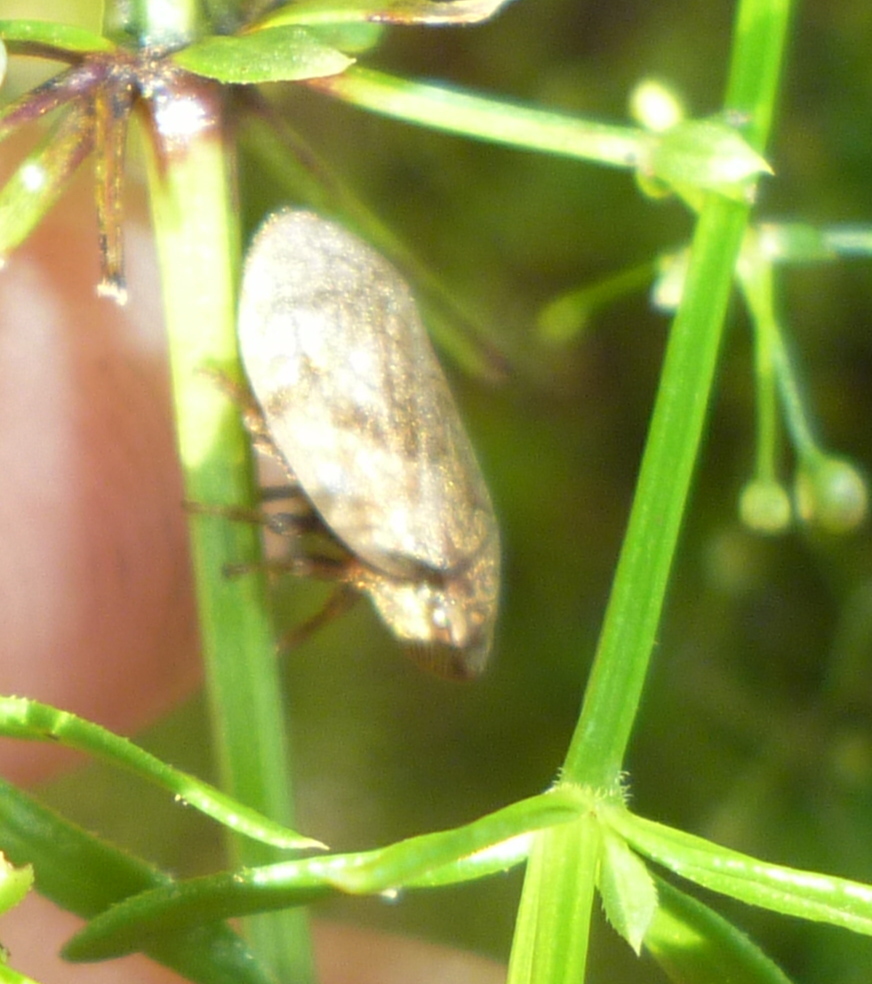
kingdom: Animalia
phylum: Arthropoda
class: Insecta
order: Hemiptera
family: Aphrophoridae
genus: Lepyronia
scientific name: Lepyronia quadrangularis
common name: Diamond-backed spittlebug
